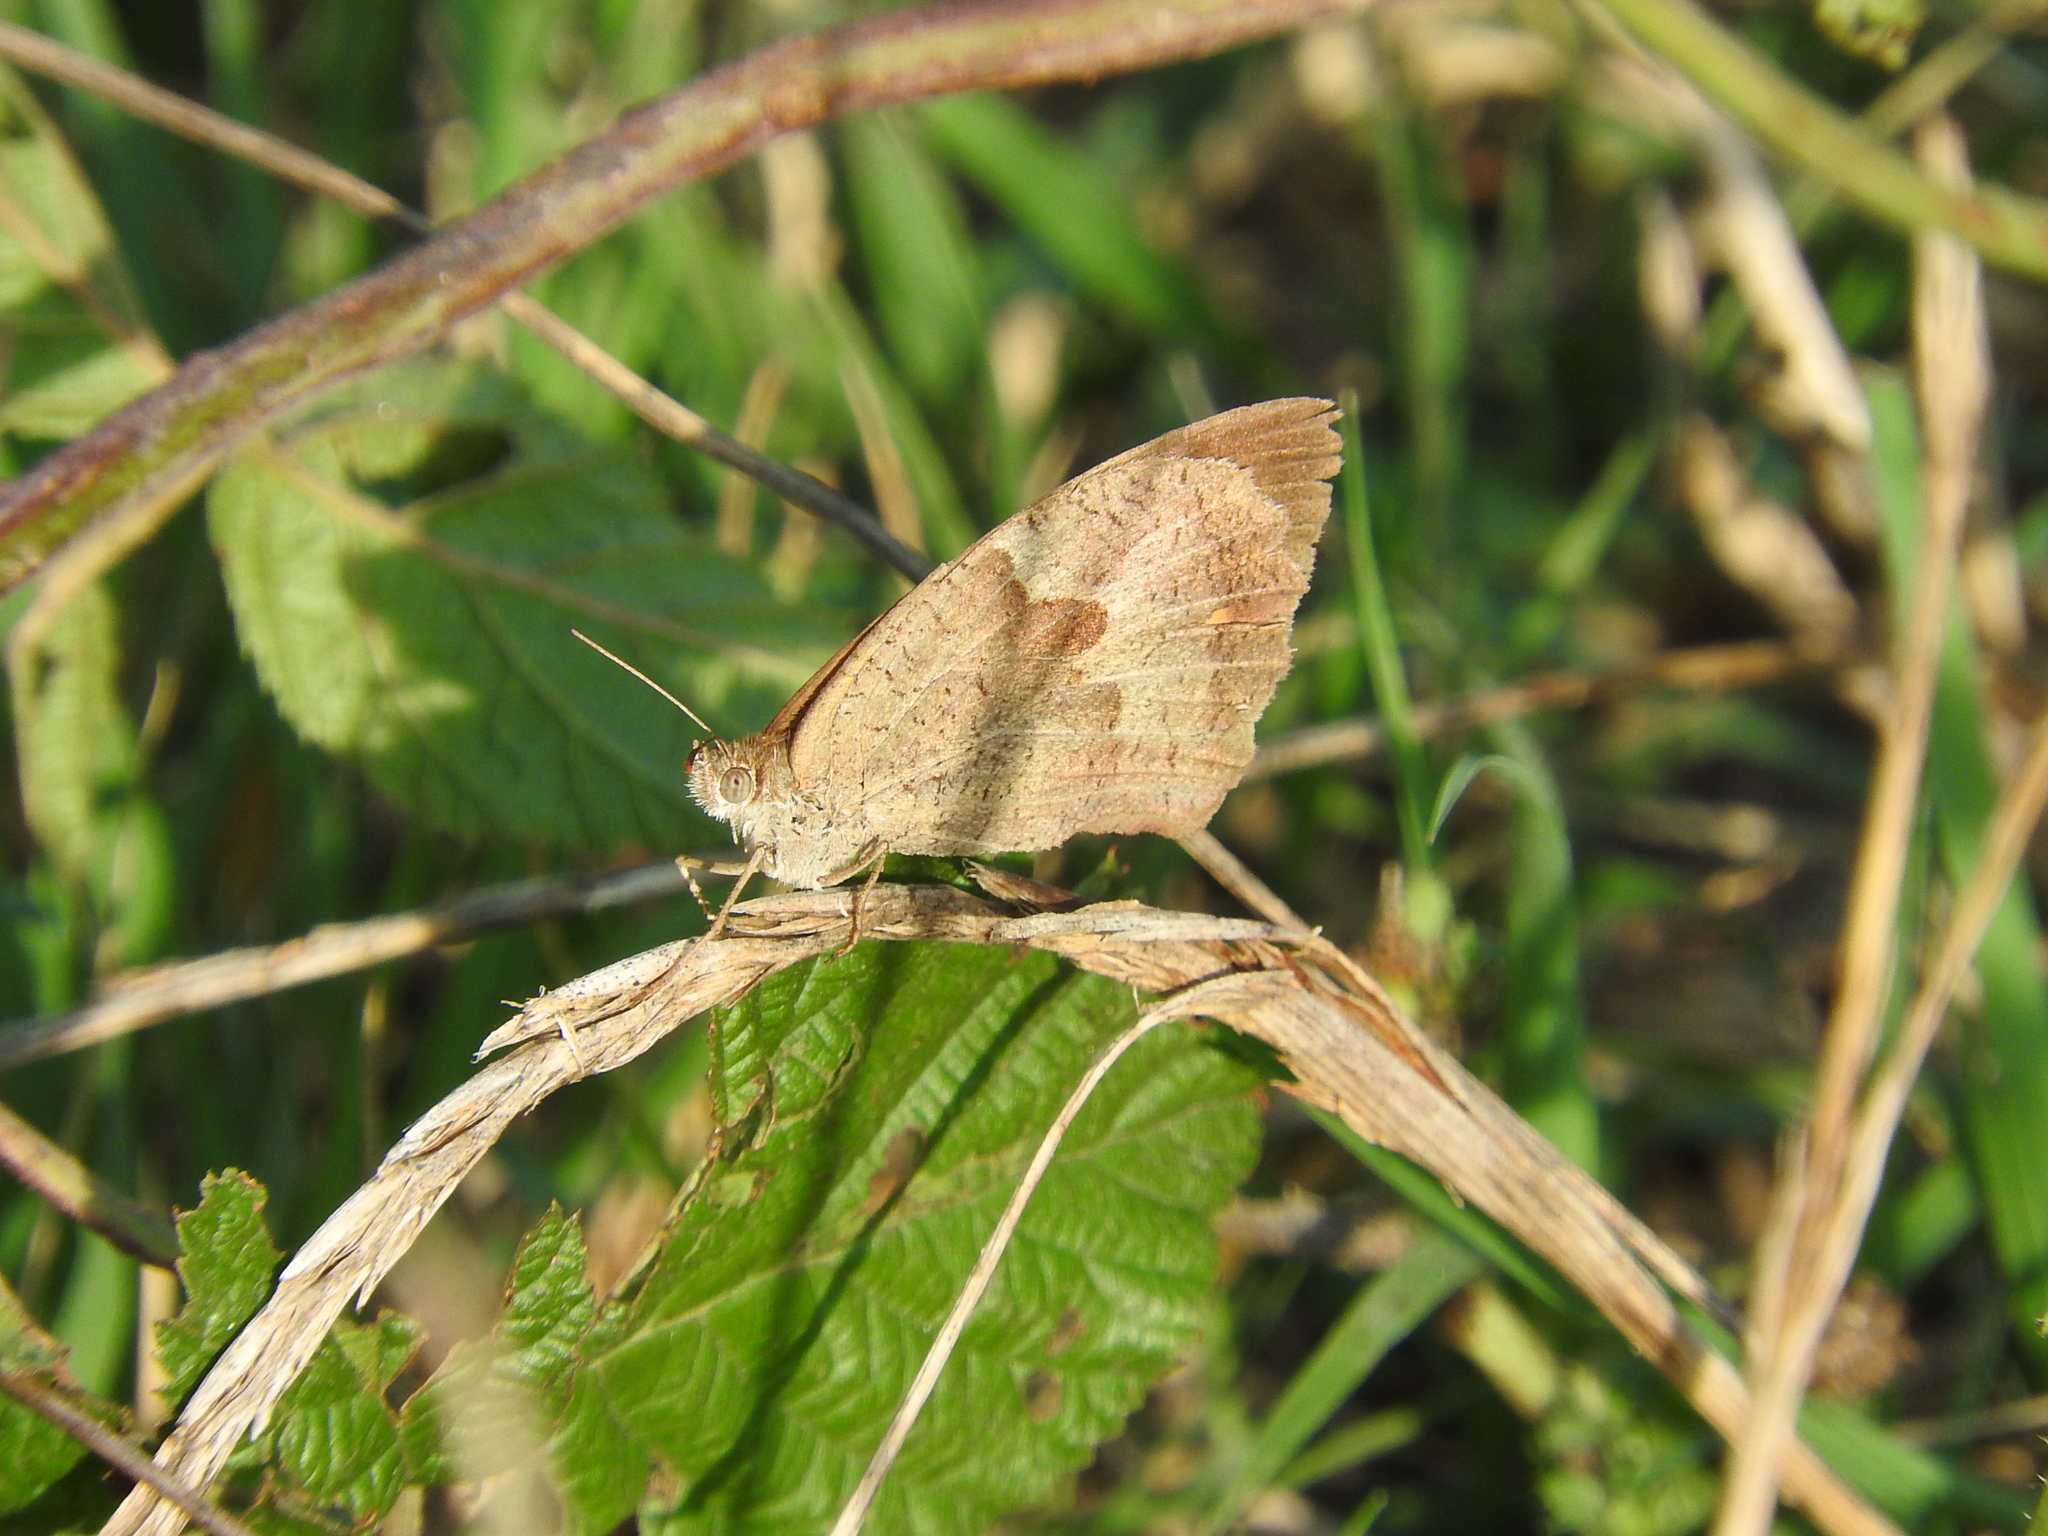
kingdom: Animalia
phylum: Arthropoda
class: Insecta
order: Lepidoptera
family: Nymphalidae
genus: Maniola
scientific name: Maniola jurtina
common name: Meadow brown
